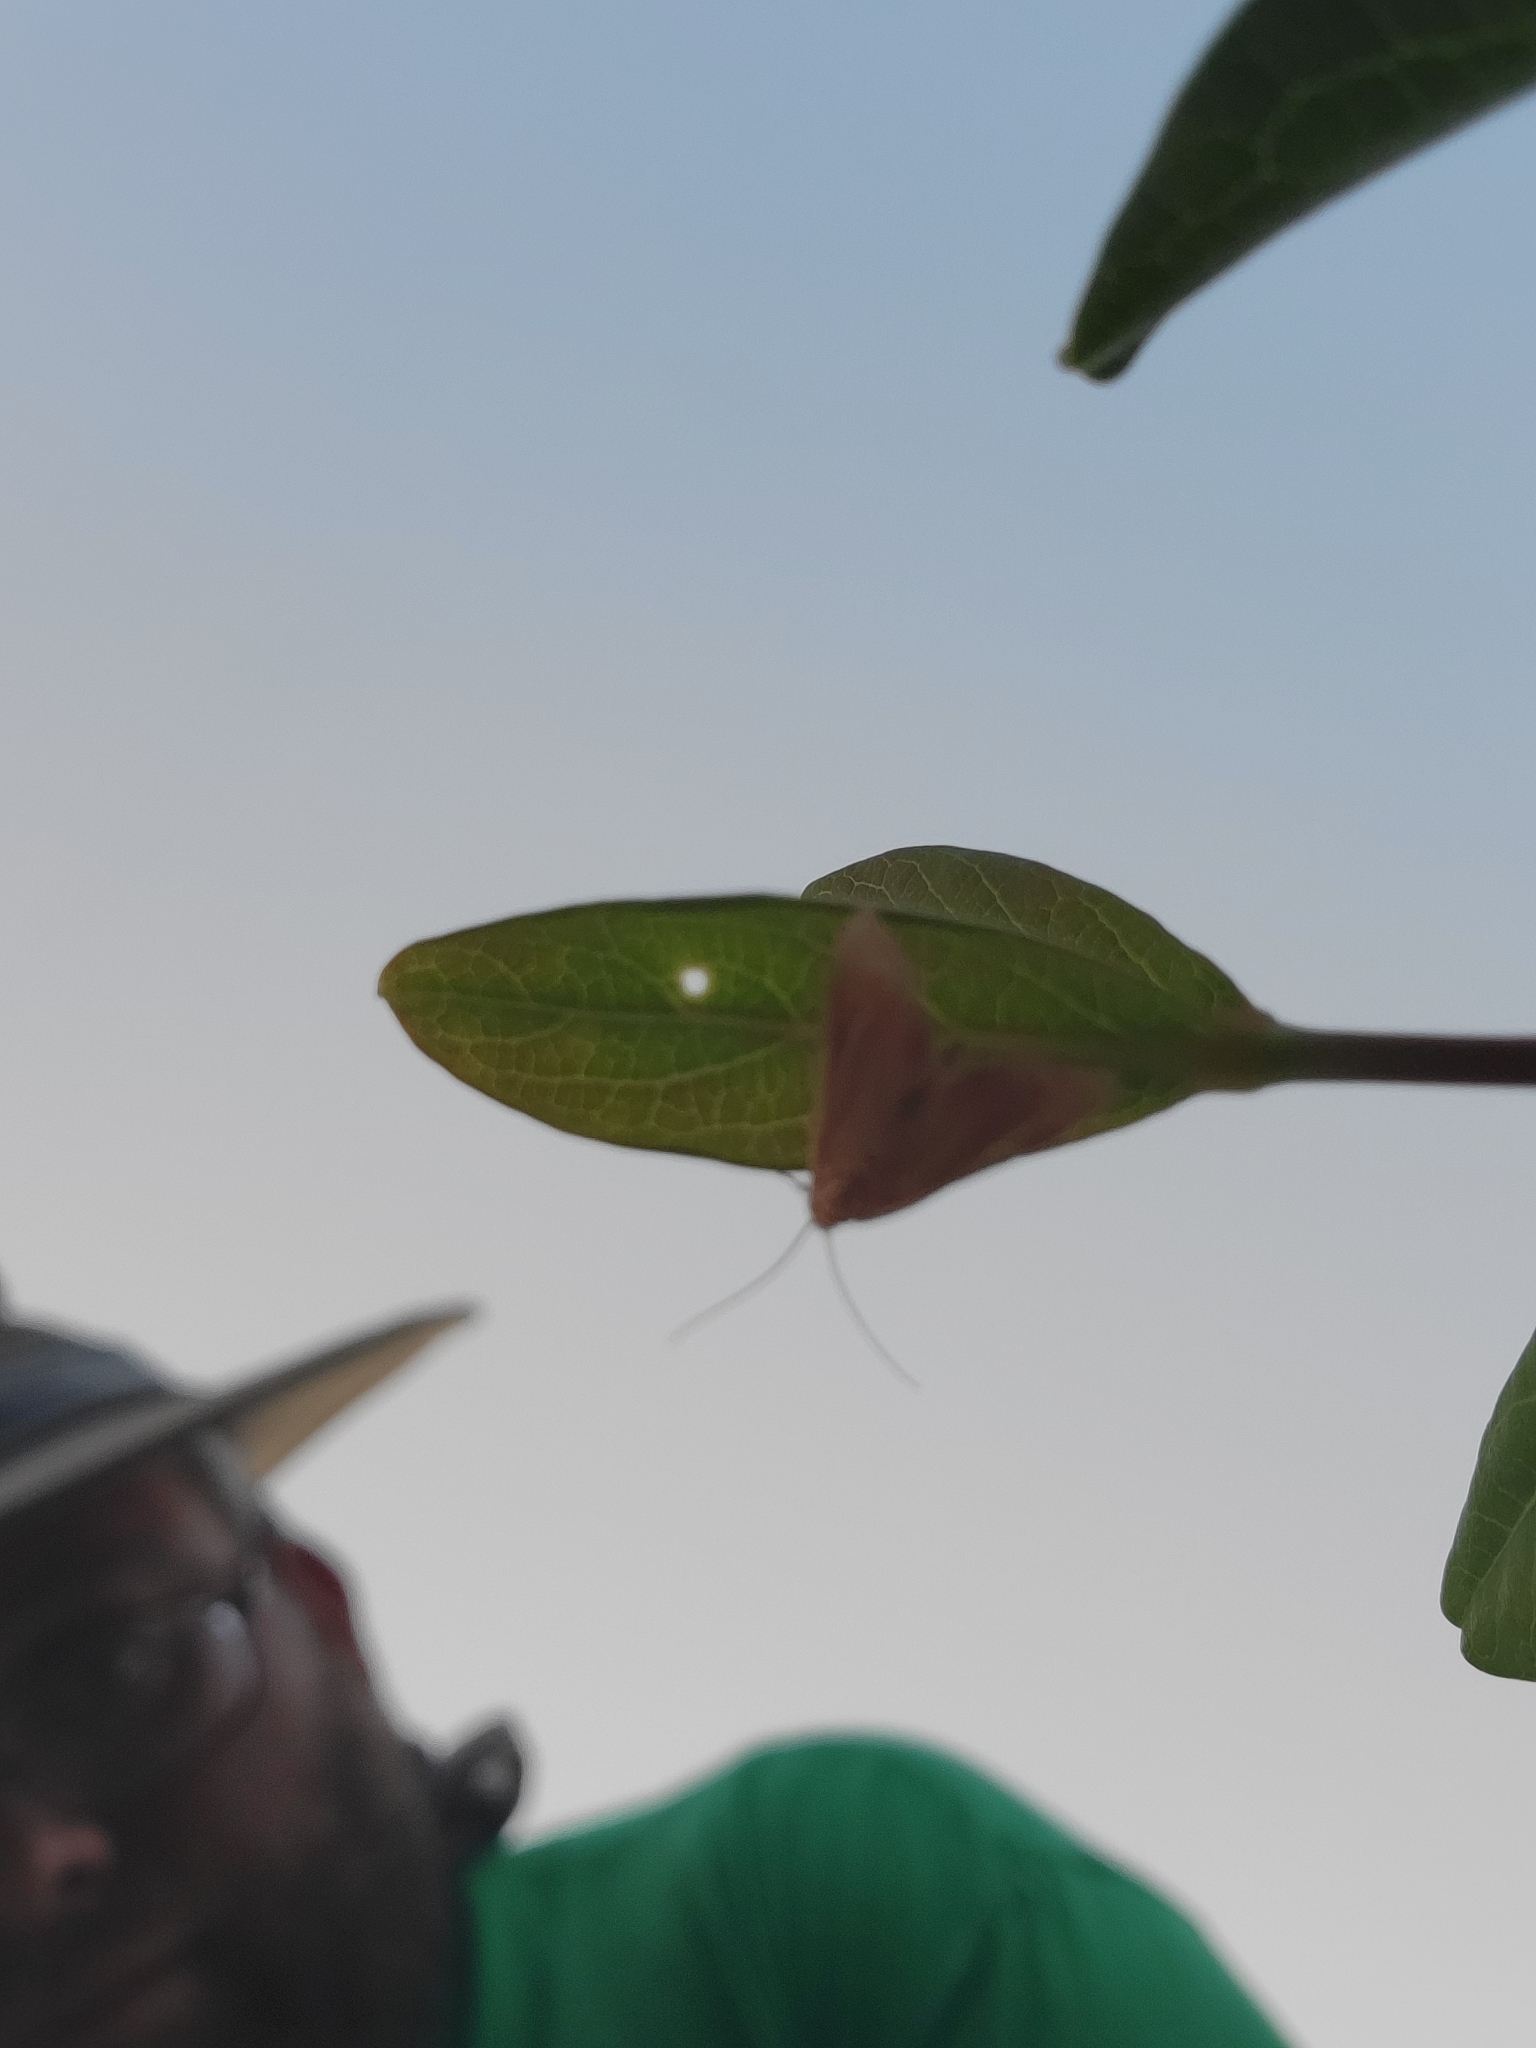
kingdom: Animalia
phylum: Arthropoda
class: Insecta
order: Lepidoptera
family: Crambidae
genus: Pyrausta
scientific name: Pyrausta inornatalis
